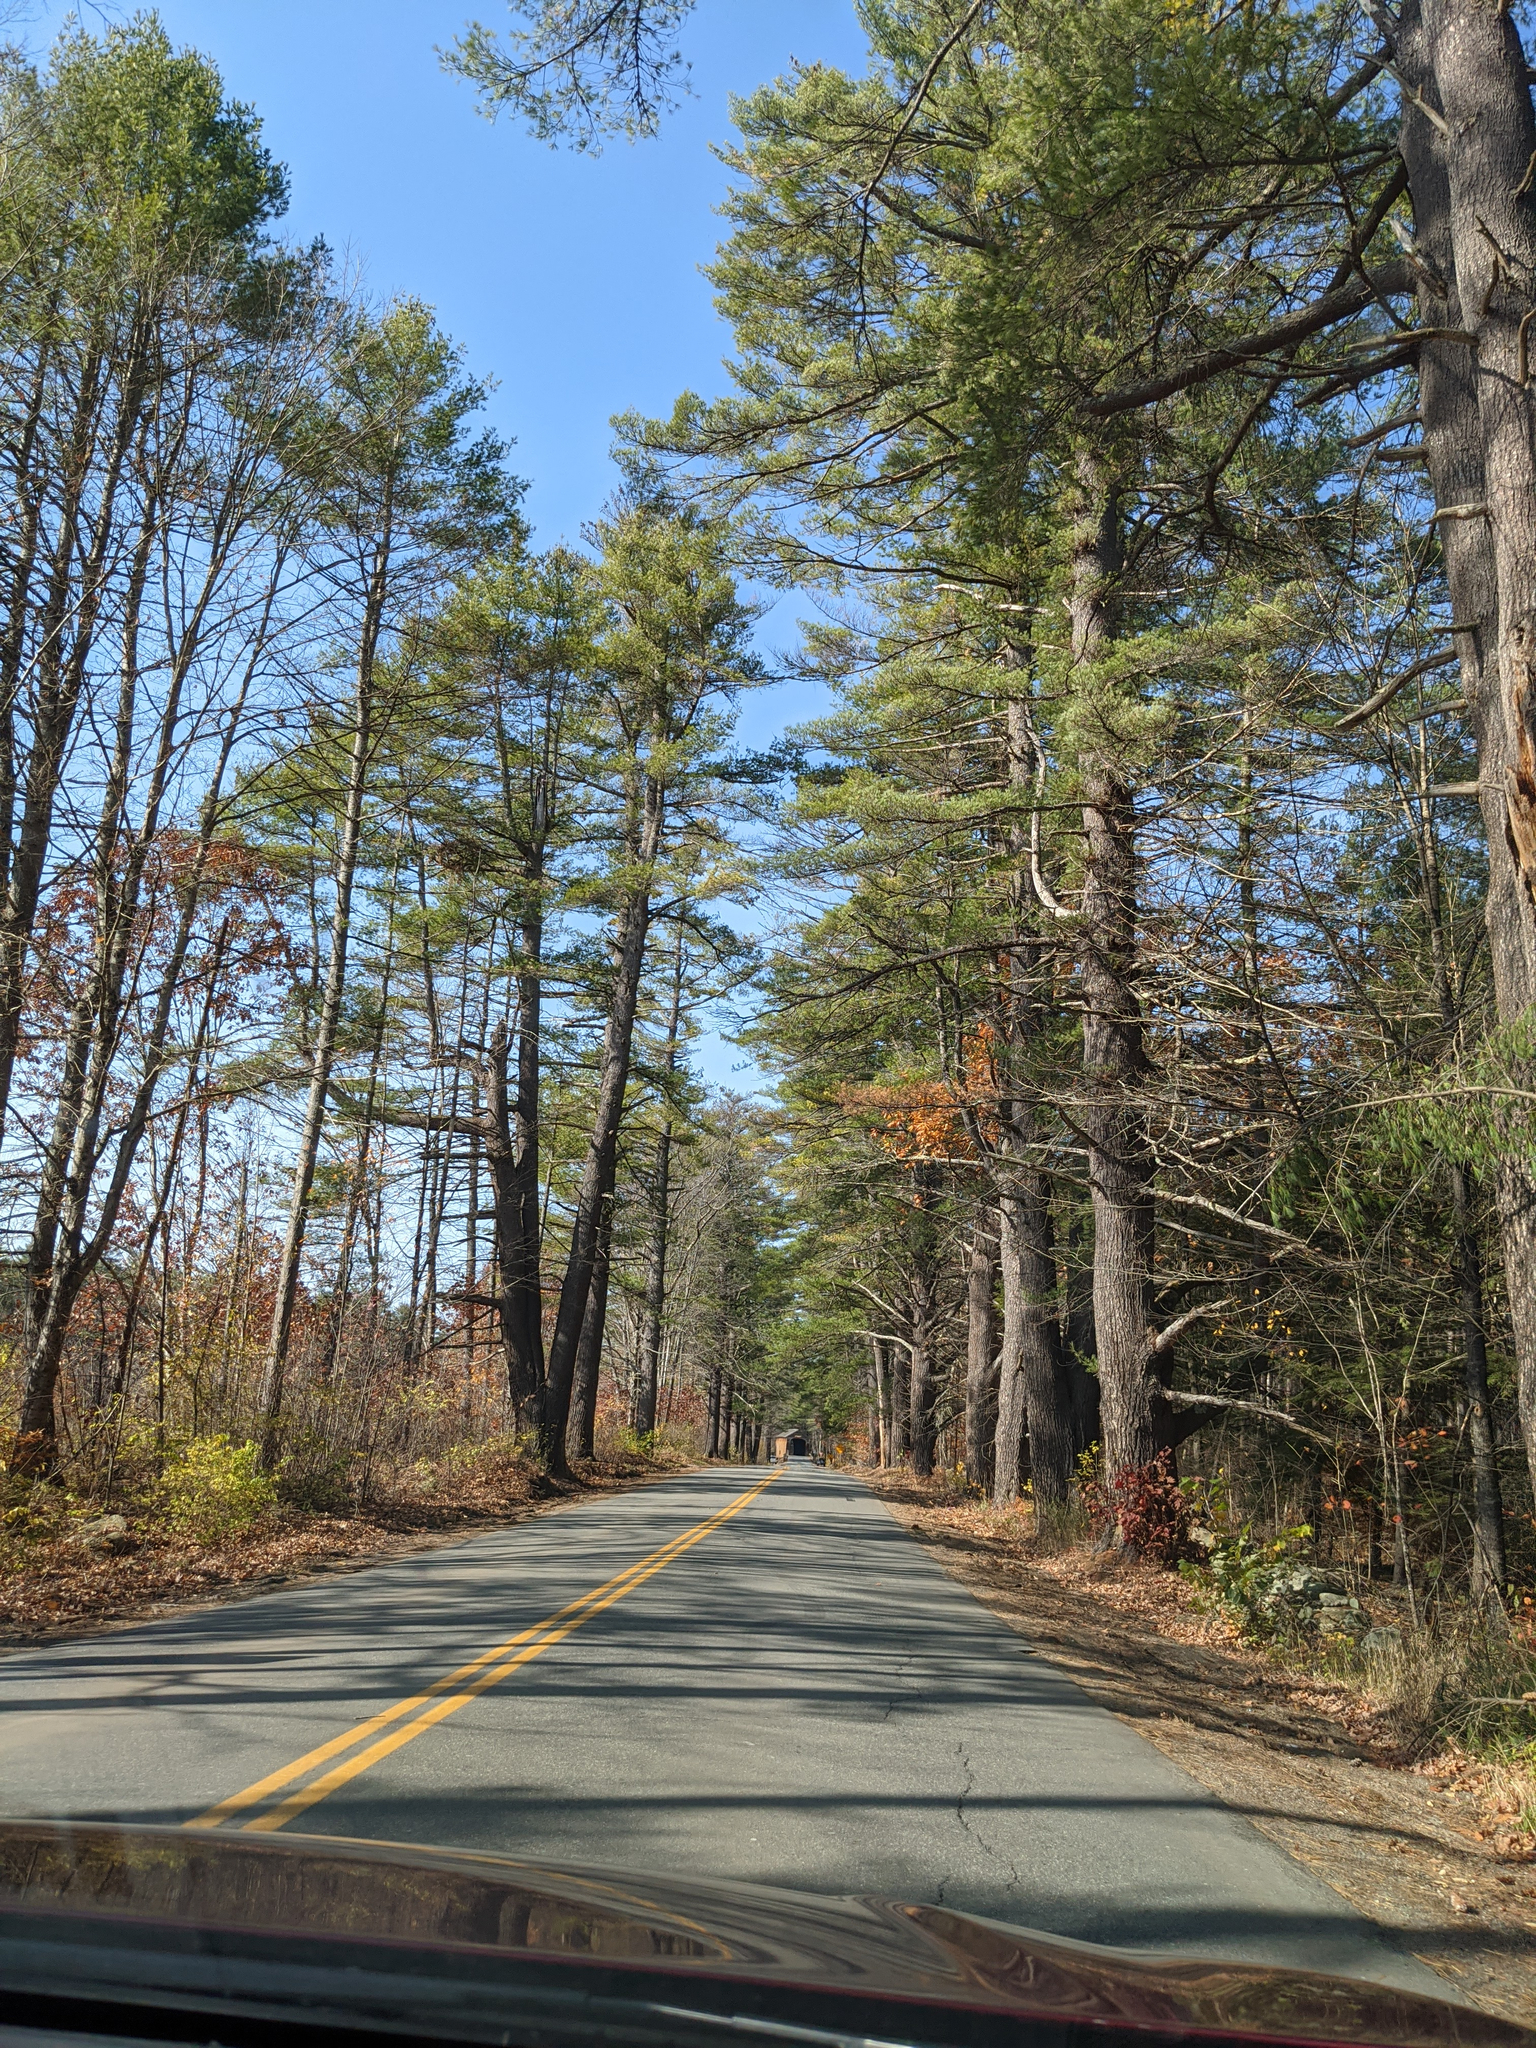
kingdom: Plantae
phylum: Tracheophyta
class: Pinopsida
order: Pinales
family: Pinaceae
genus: Pinus
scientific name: Pinus strobus
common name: Weymouth pine
